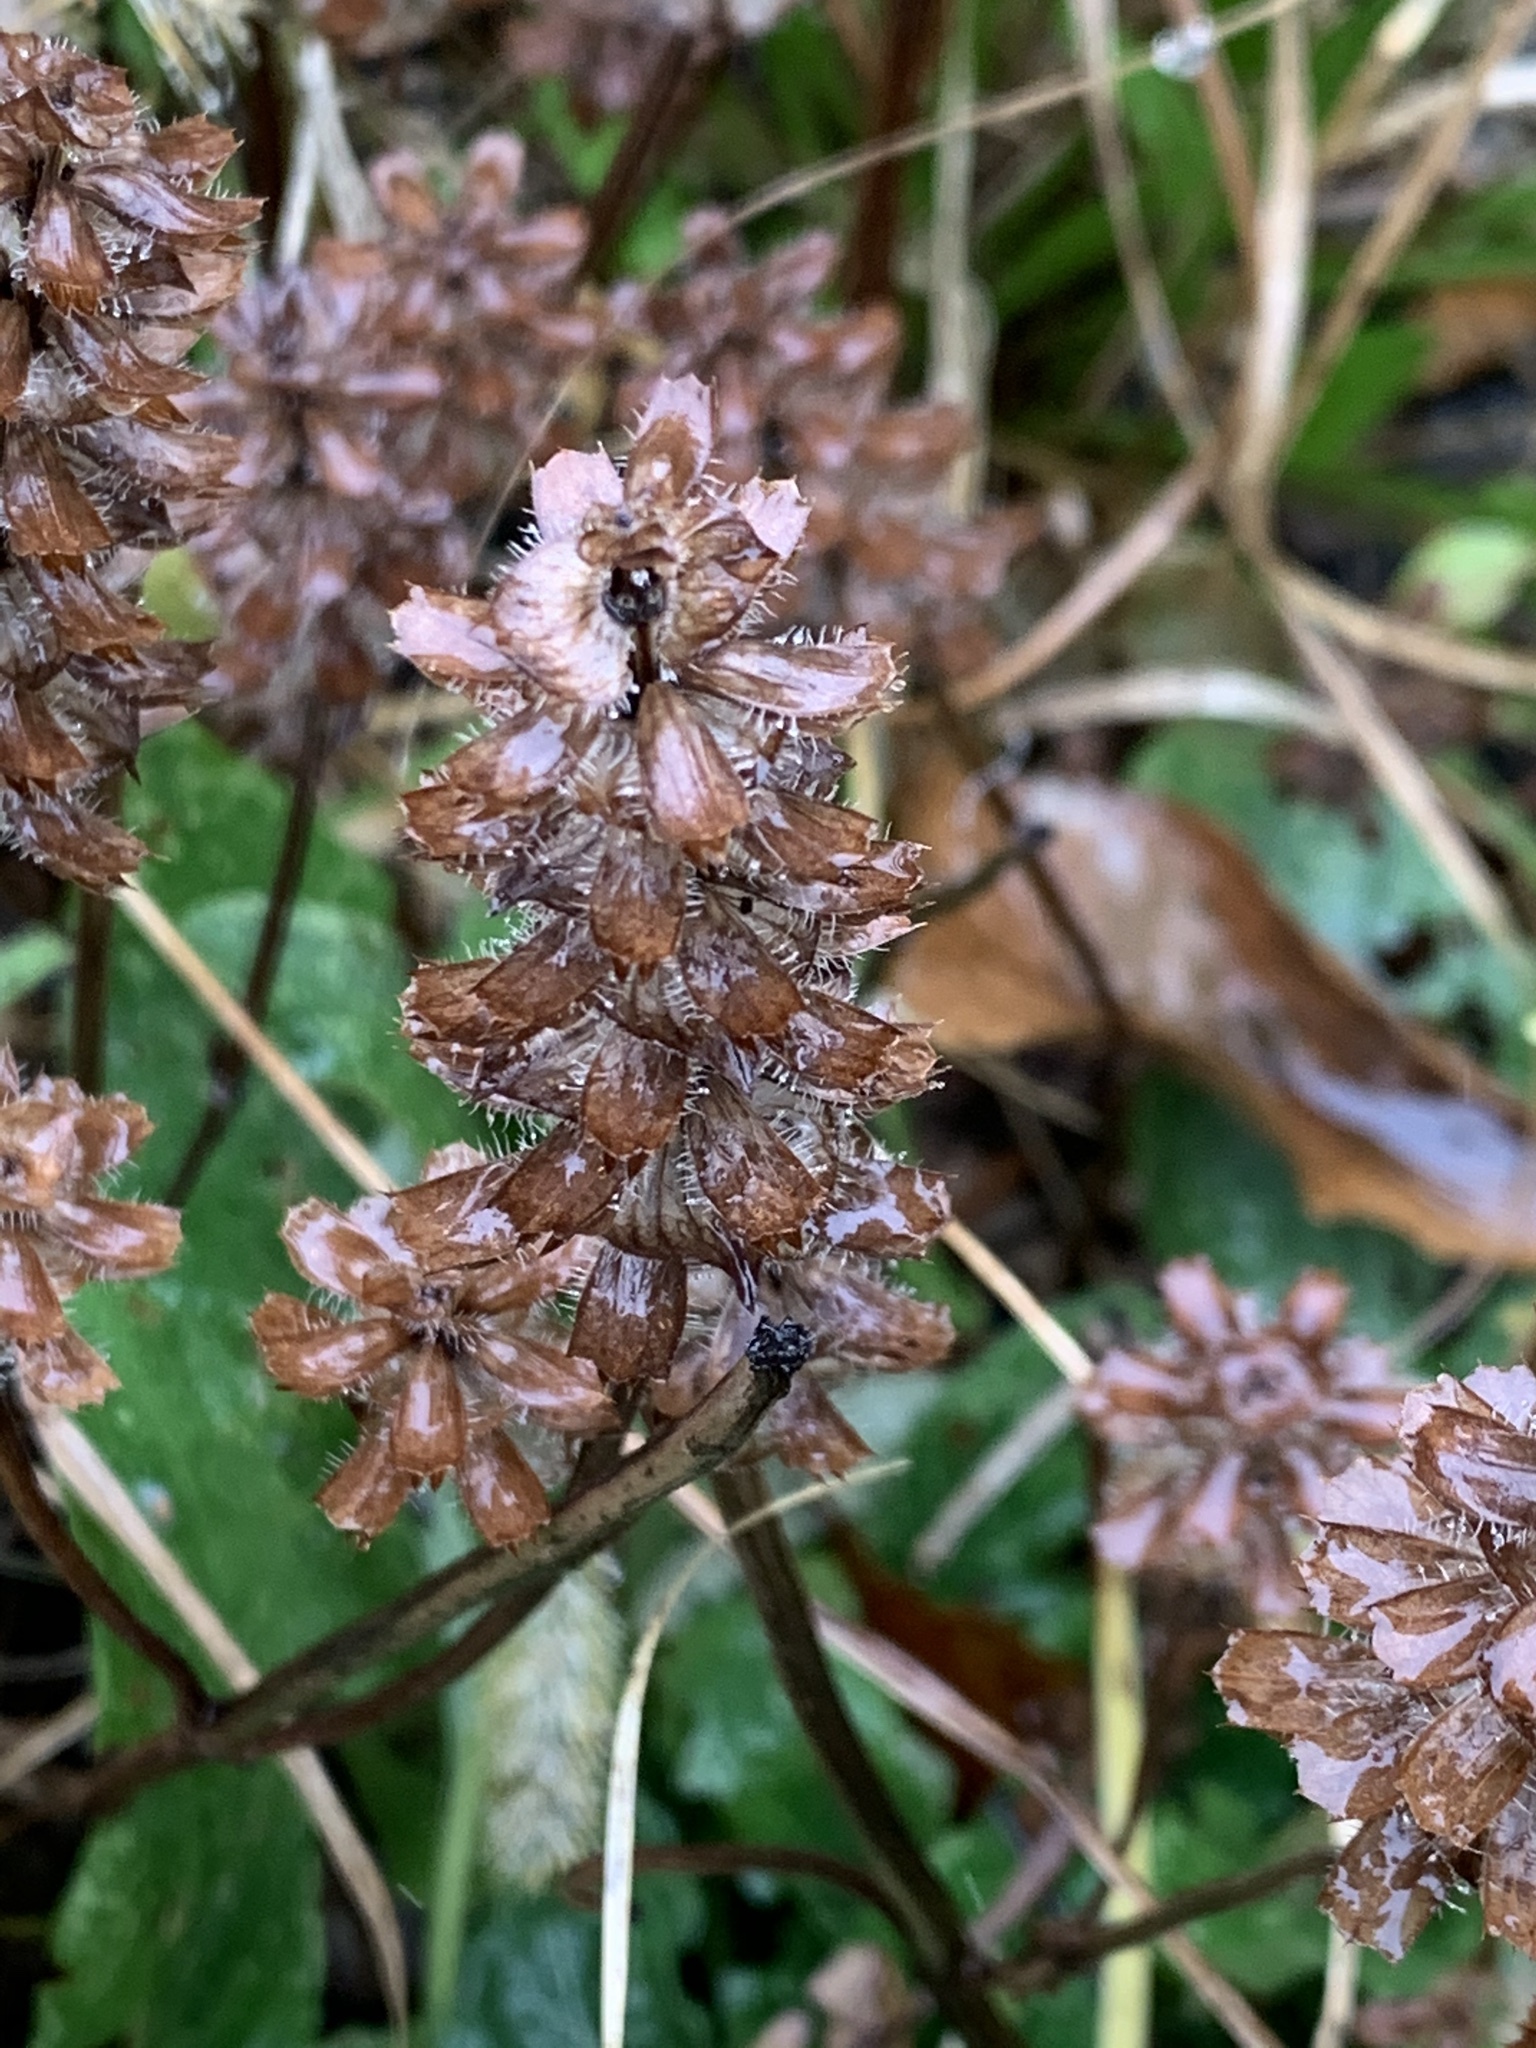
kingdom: Plantae
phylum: Tracheophyta
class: Magnoliopsida
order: Lamiales
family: Lamiaceae
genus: Prunella
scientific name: Prunella vulgaris
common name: Heal-all
